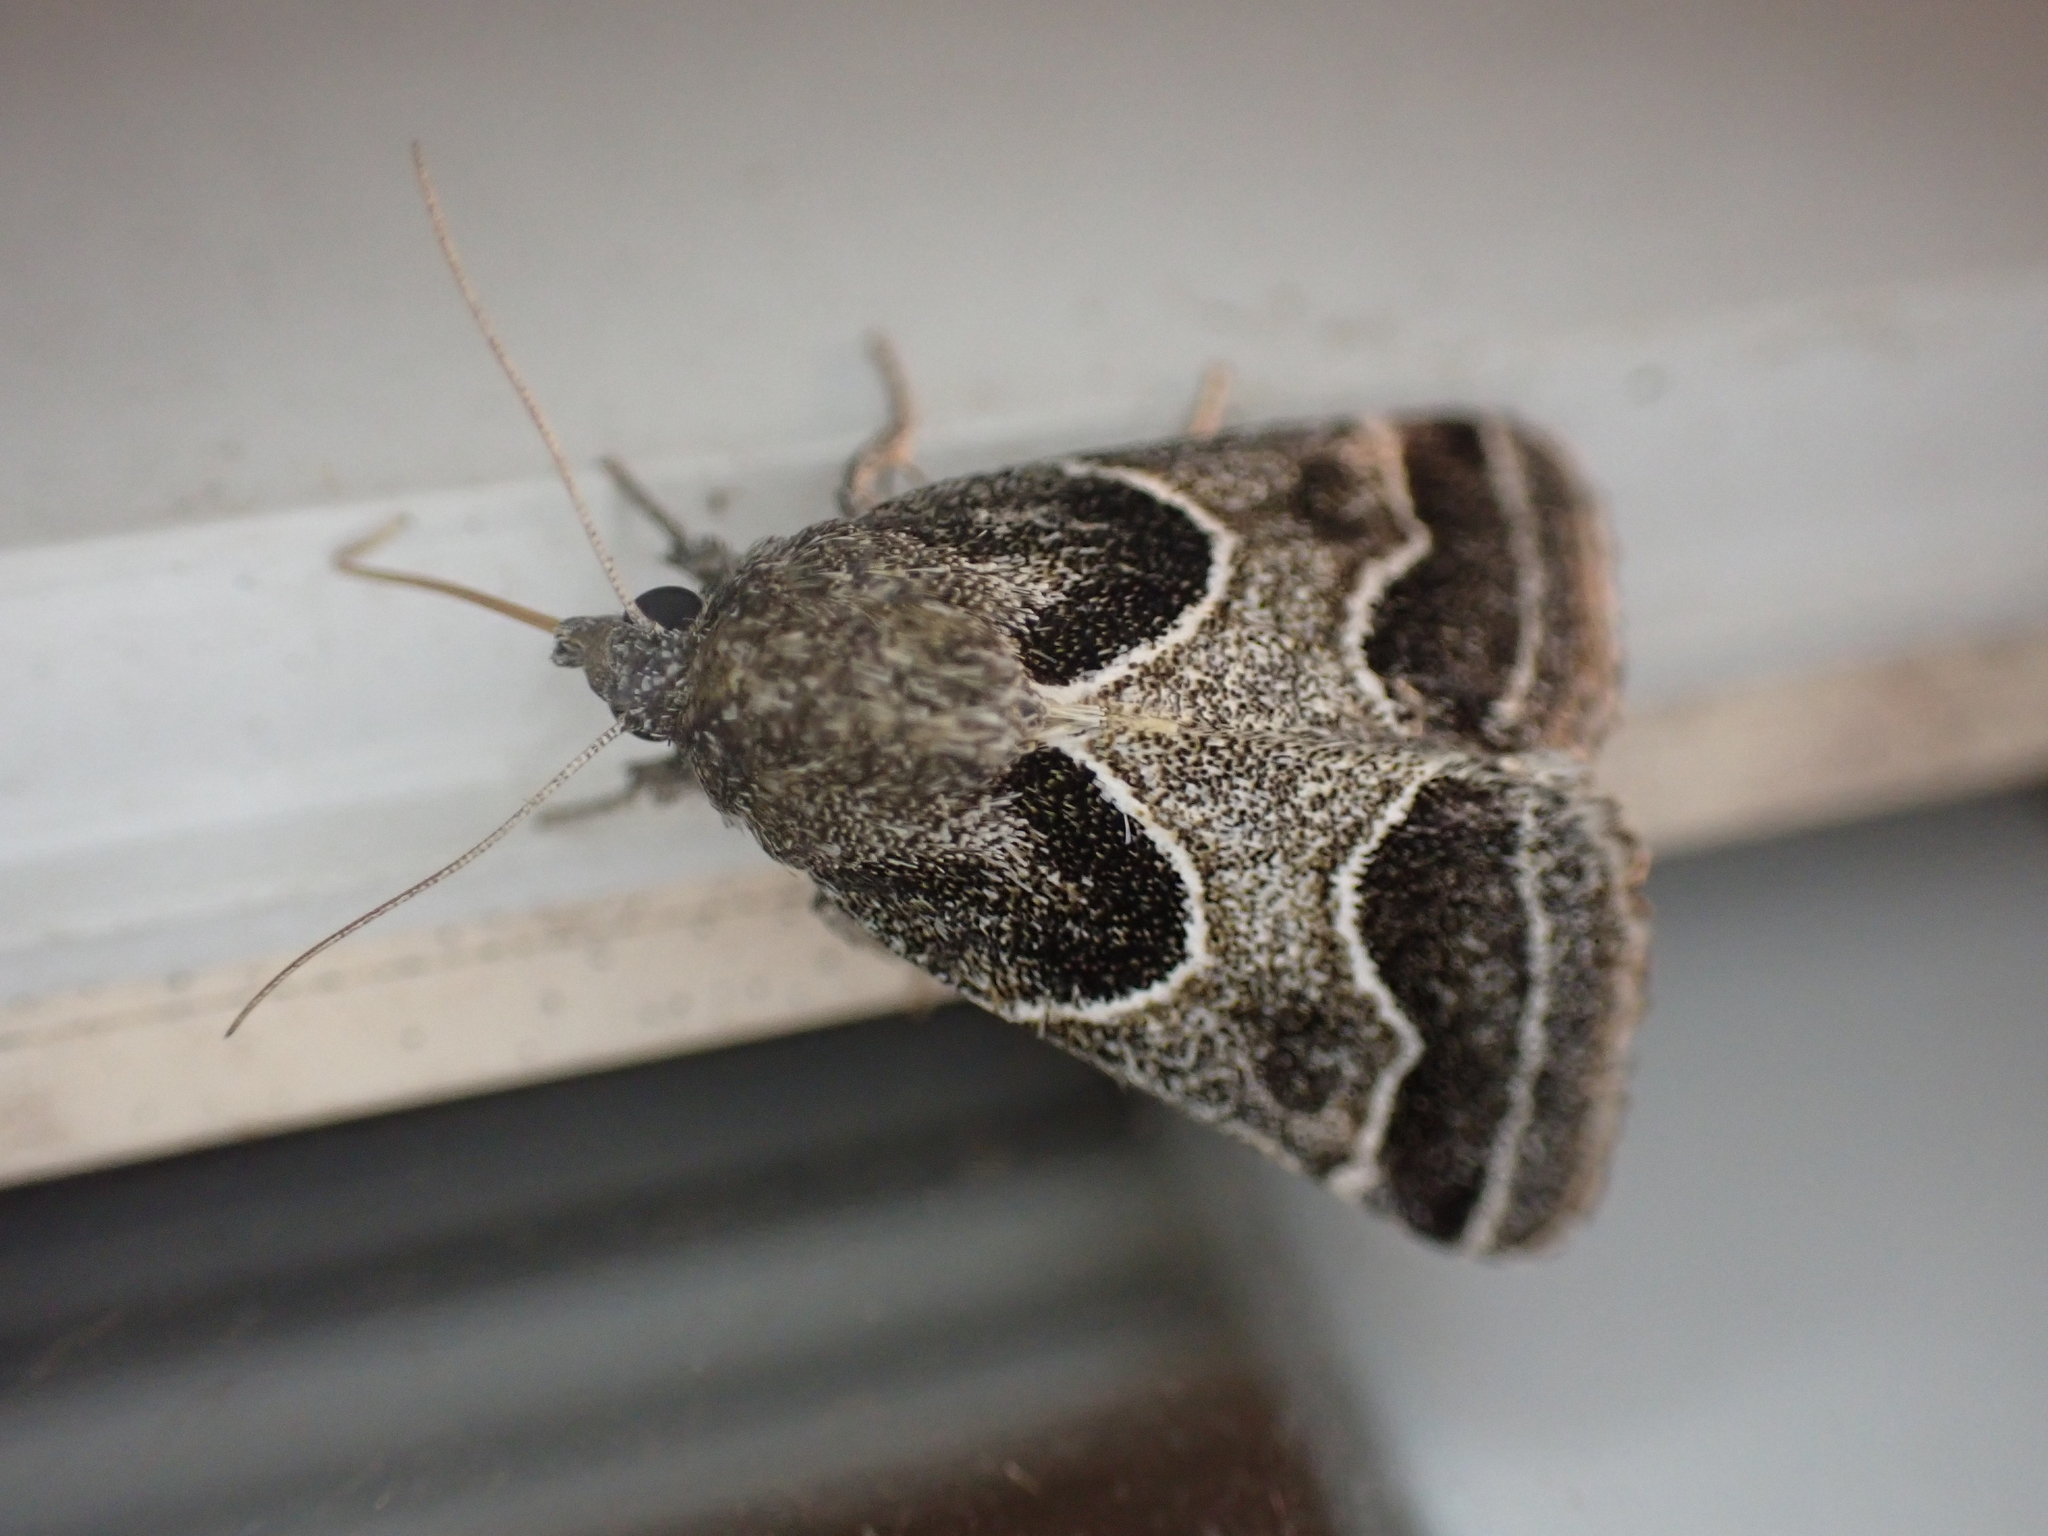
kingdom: Animalia
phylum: Arthropoda
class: Insecta
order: Lepidoptera
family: Noctuidae
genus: Schinia
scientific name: Schinia rivulosa
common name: Scarce meal-moth
